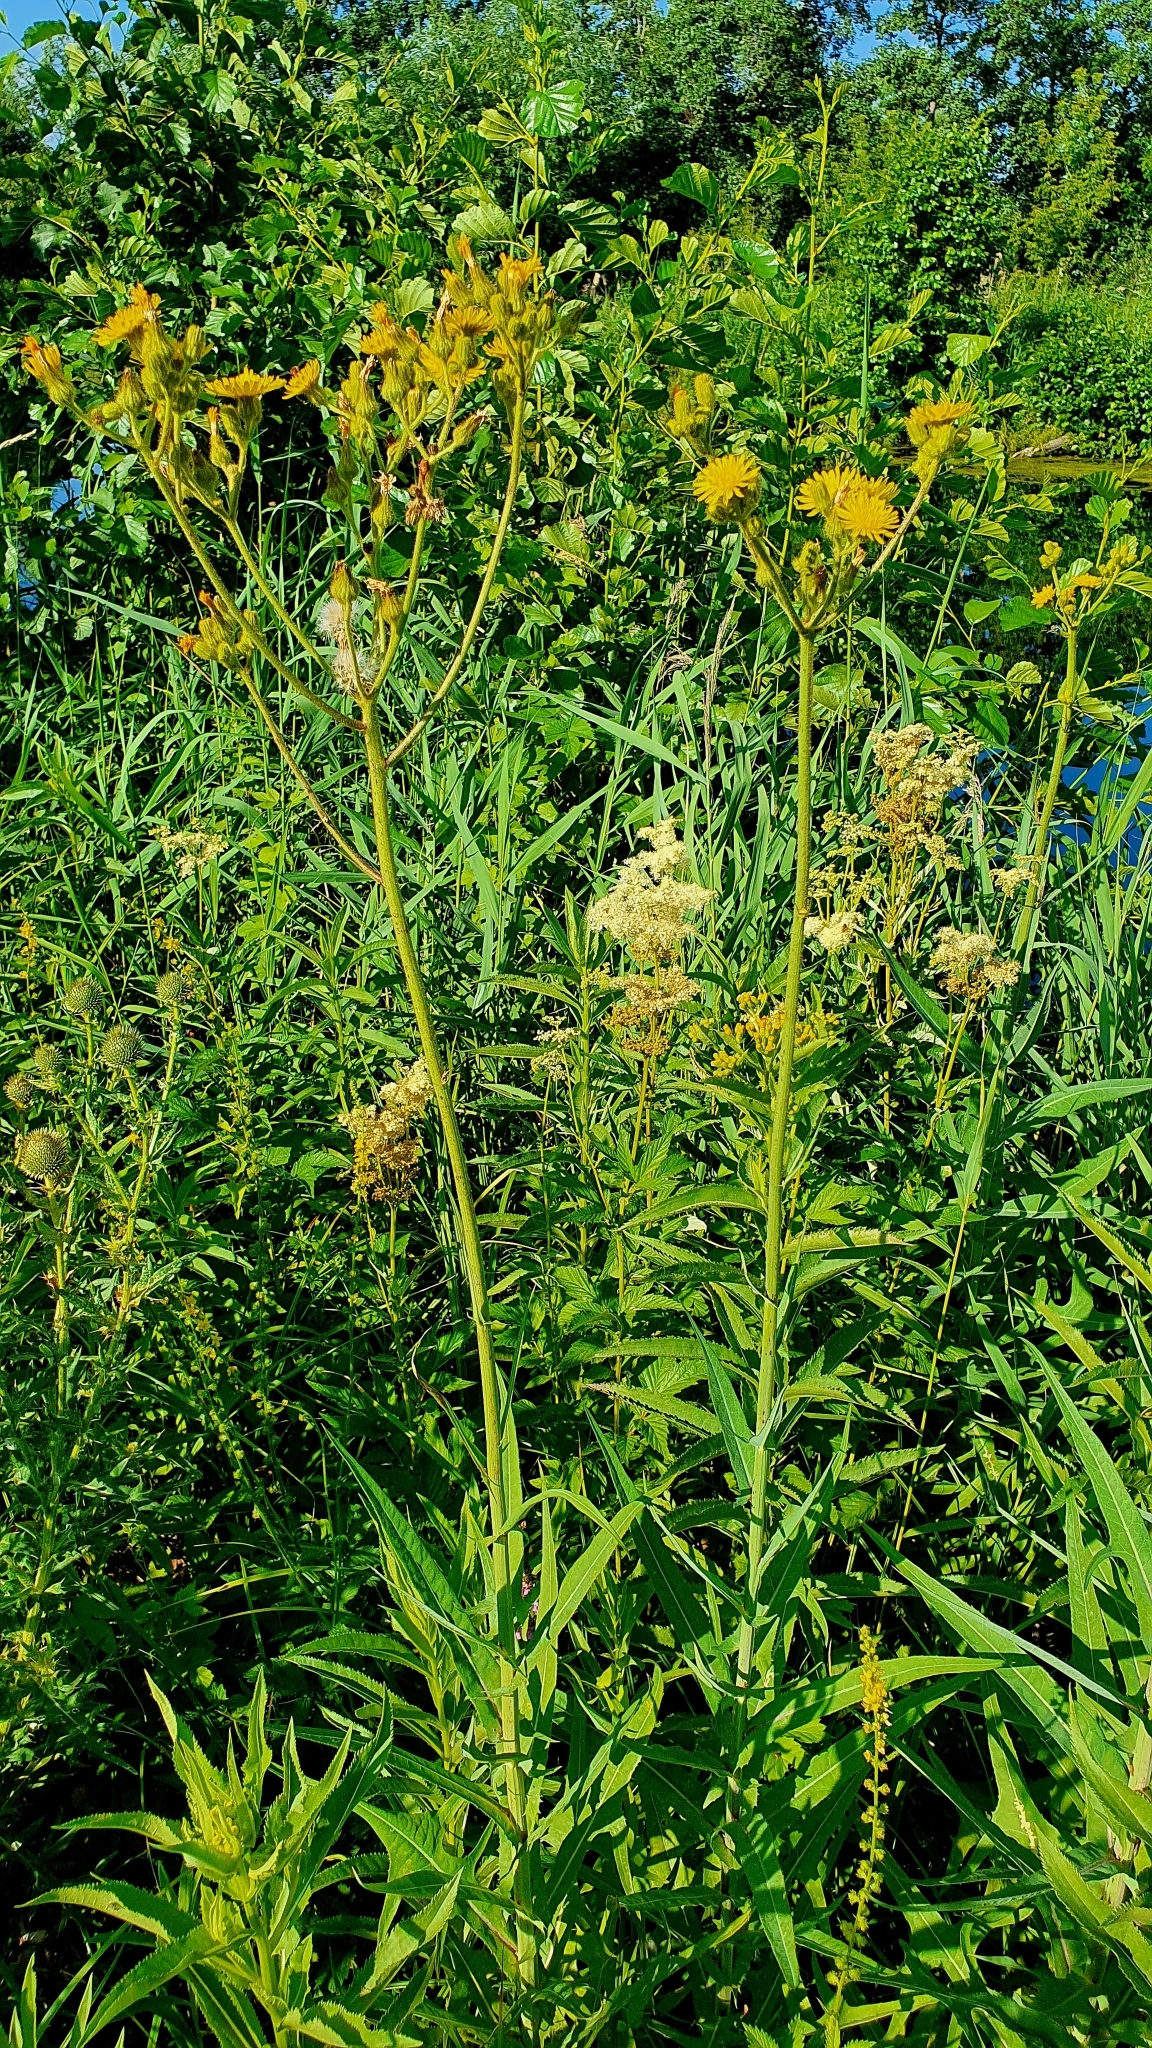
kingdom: Plantae
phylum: Tracheophyta
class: Magnoliopsida
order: Asterales
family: Asteraceae
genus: Sonchus
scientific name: Sonchus palustris
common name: Marsh sow-thistle
